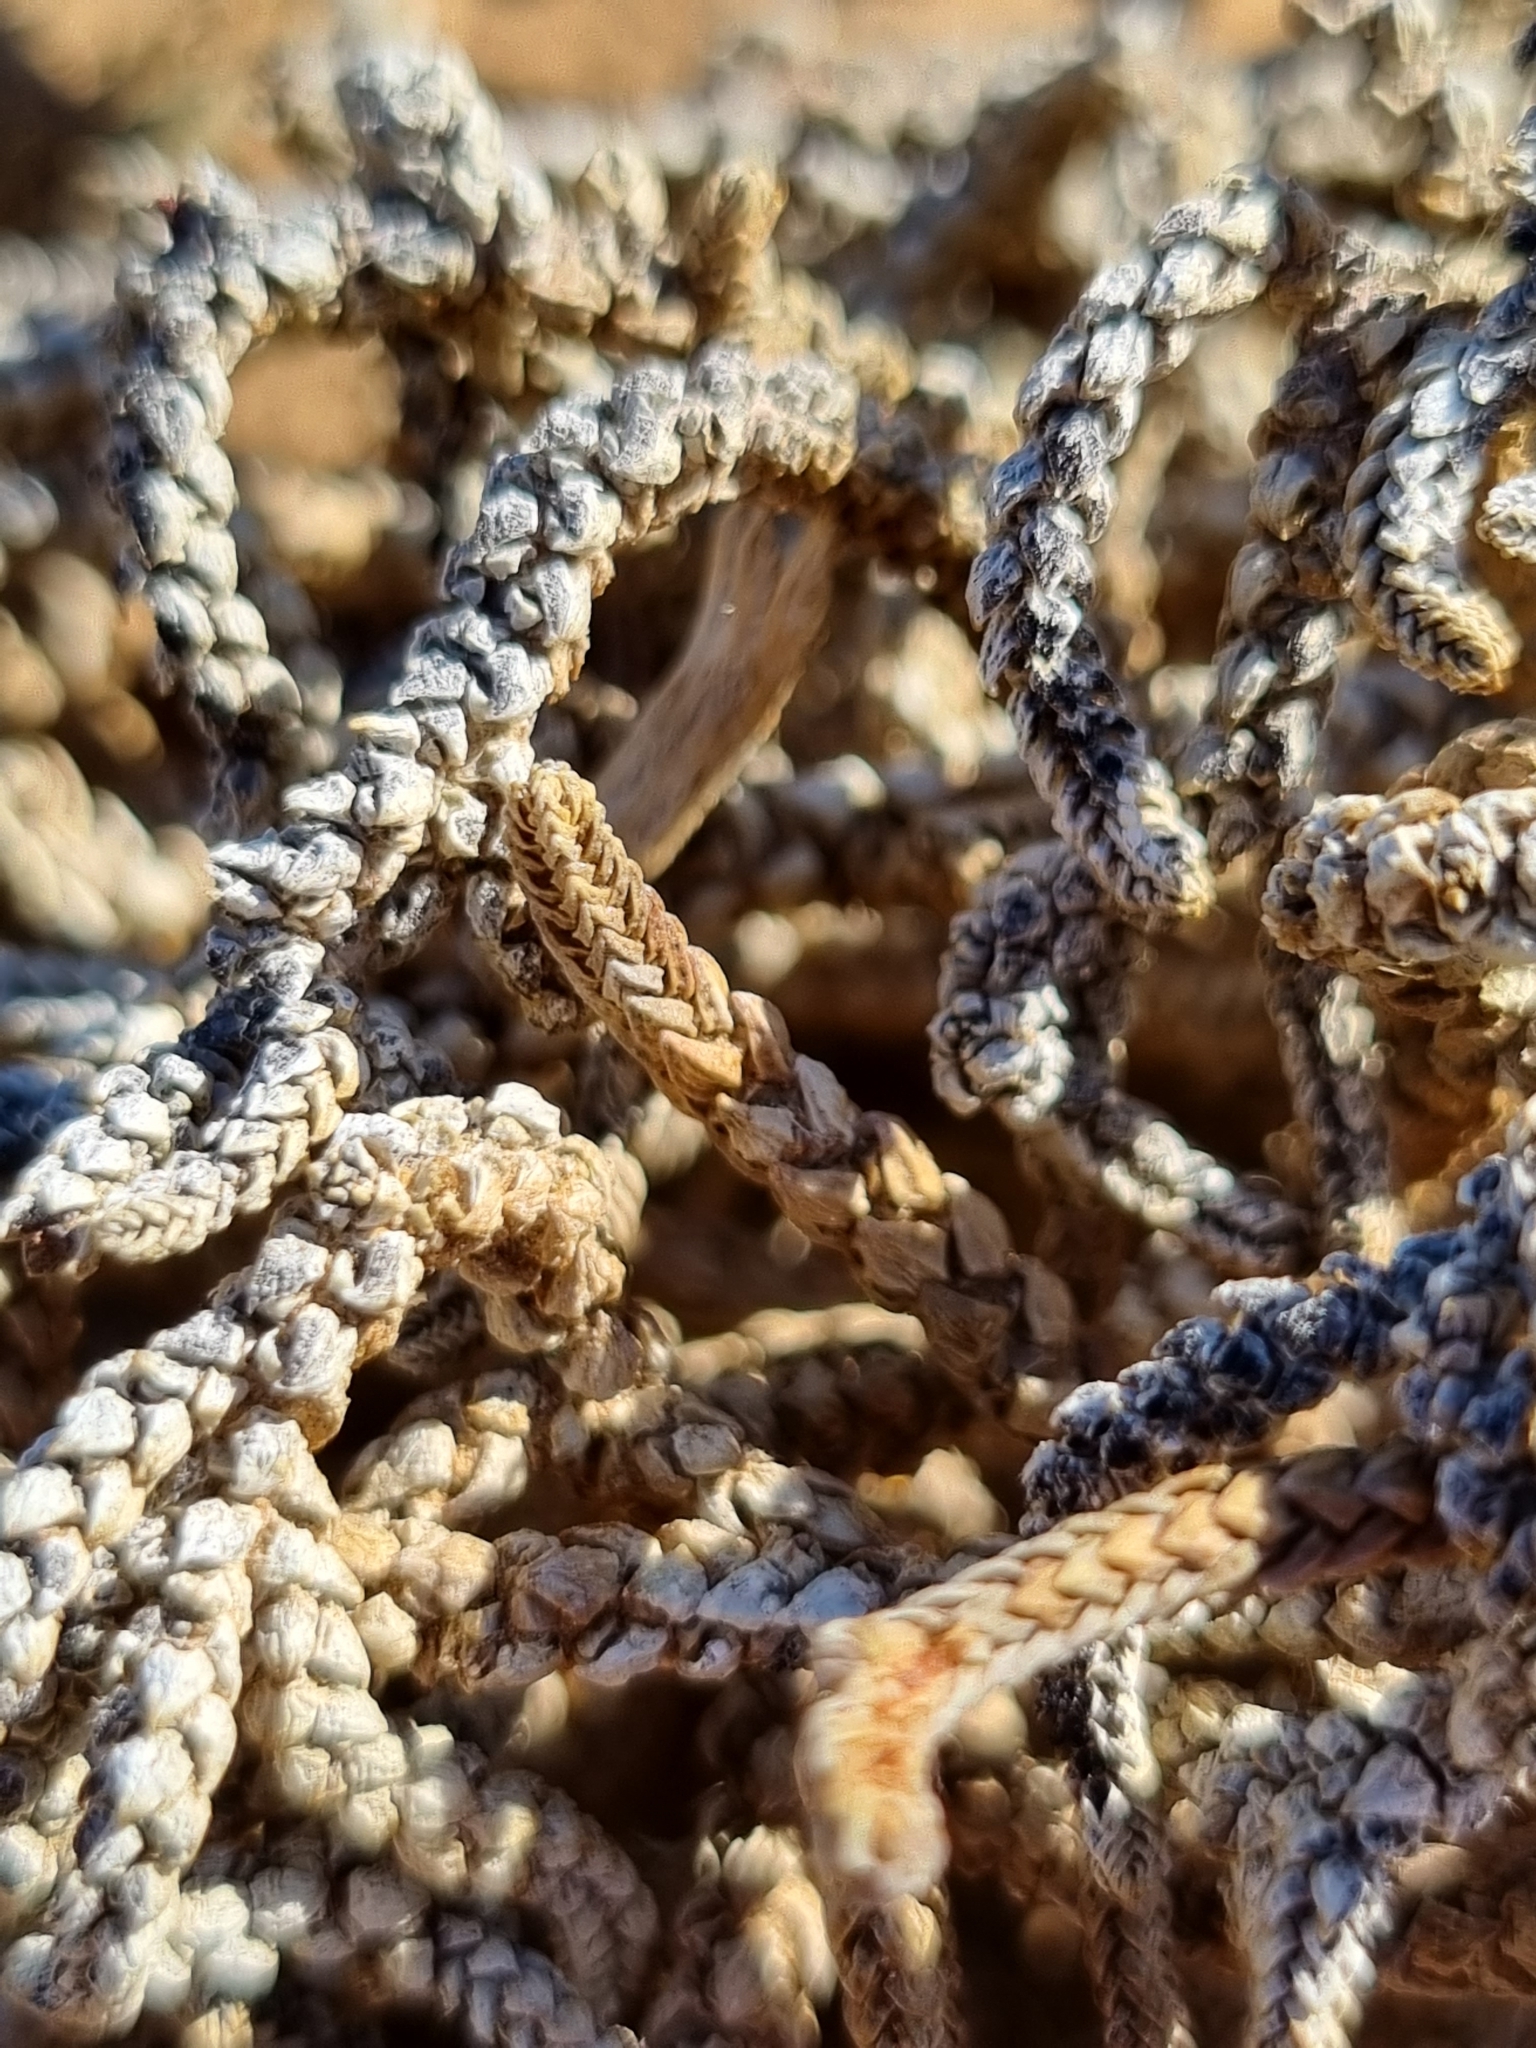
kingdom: Plantae
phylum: Tracheophyta
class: Magnoliopsida
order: Saxifragales
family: Crassulaceae
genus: Crassula
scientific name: Crassula muscosa
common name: Toy-cypress
